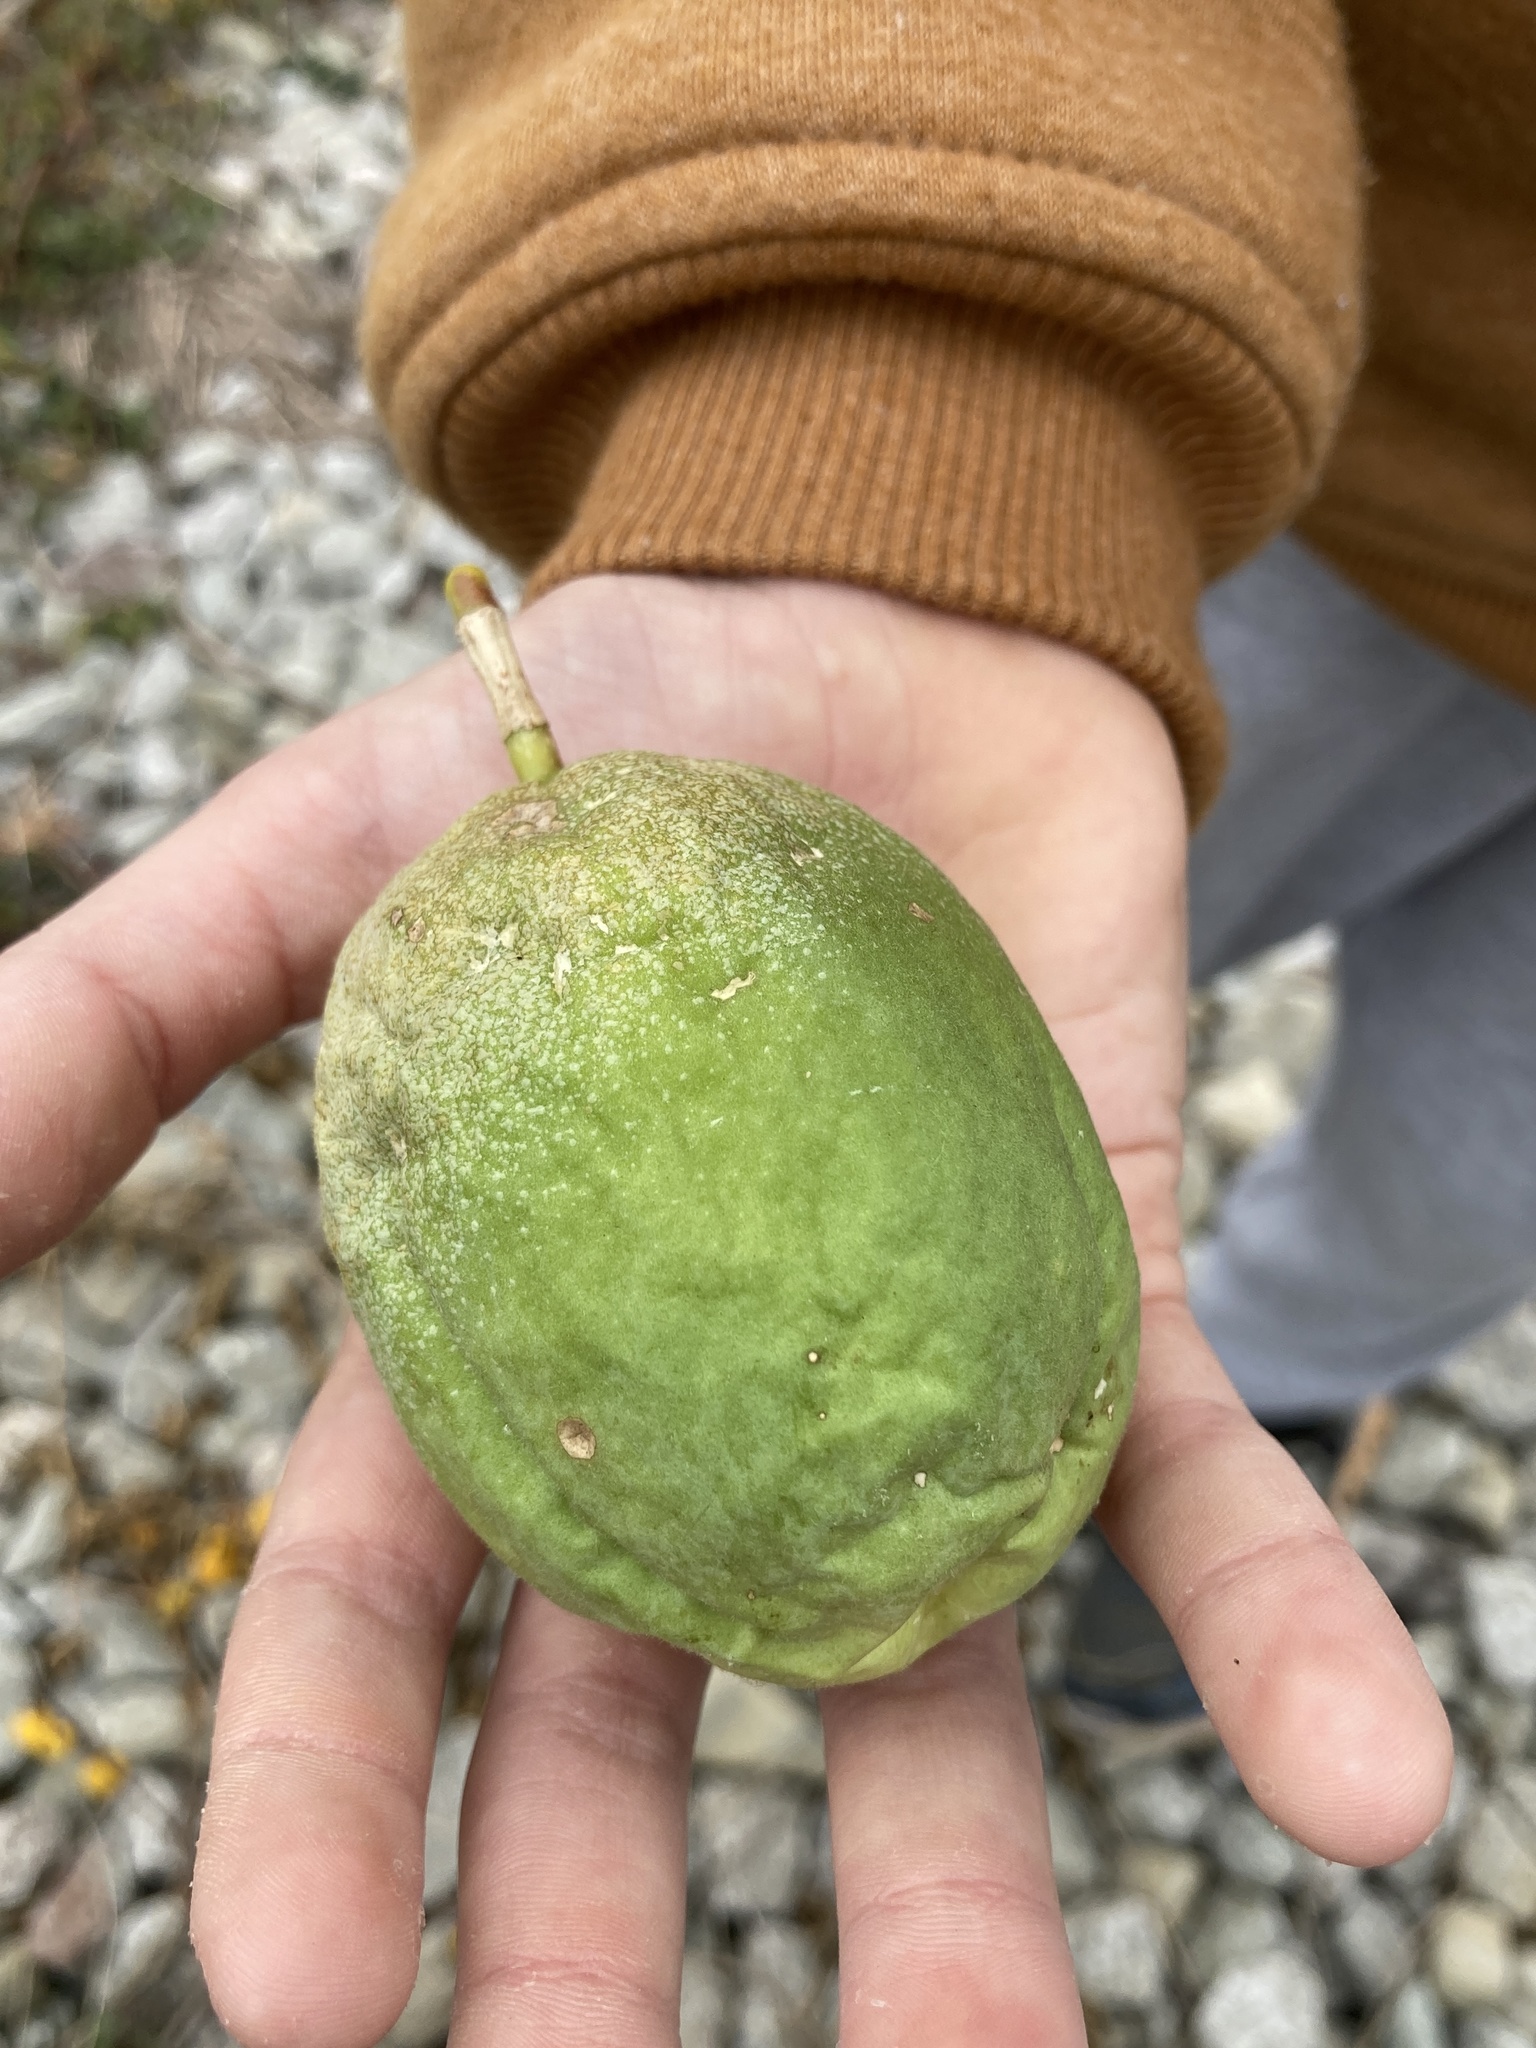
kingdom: Plantae
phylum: Tracheophyta
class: Magnoliopsida
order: Malpighiales
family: Passifloraceae
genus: Passiflora
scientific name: Passiflora incarnata
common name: Apricot-vine
